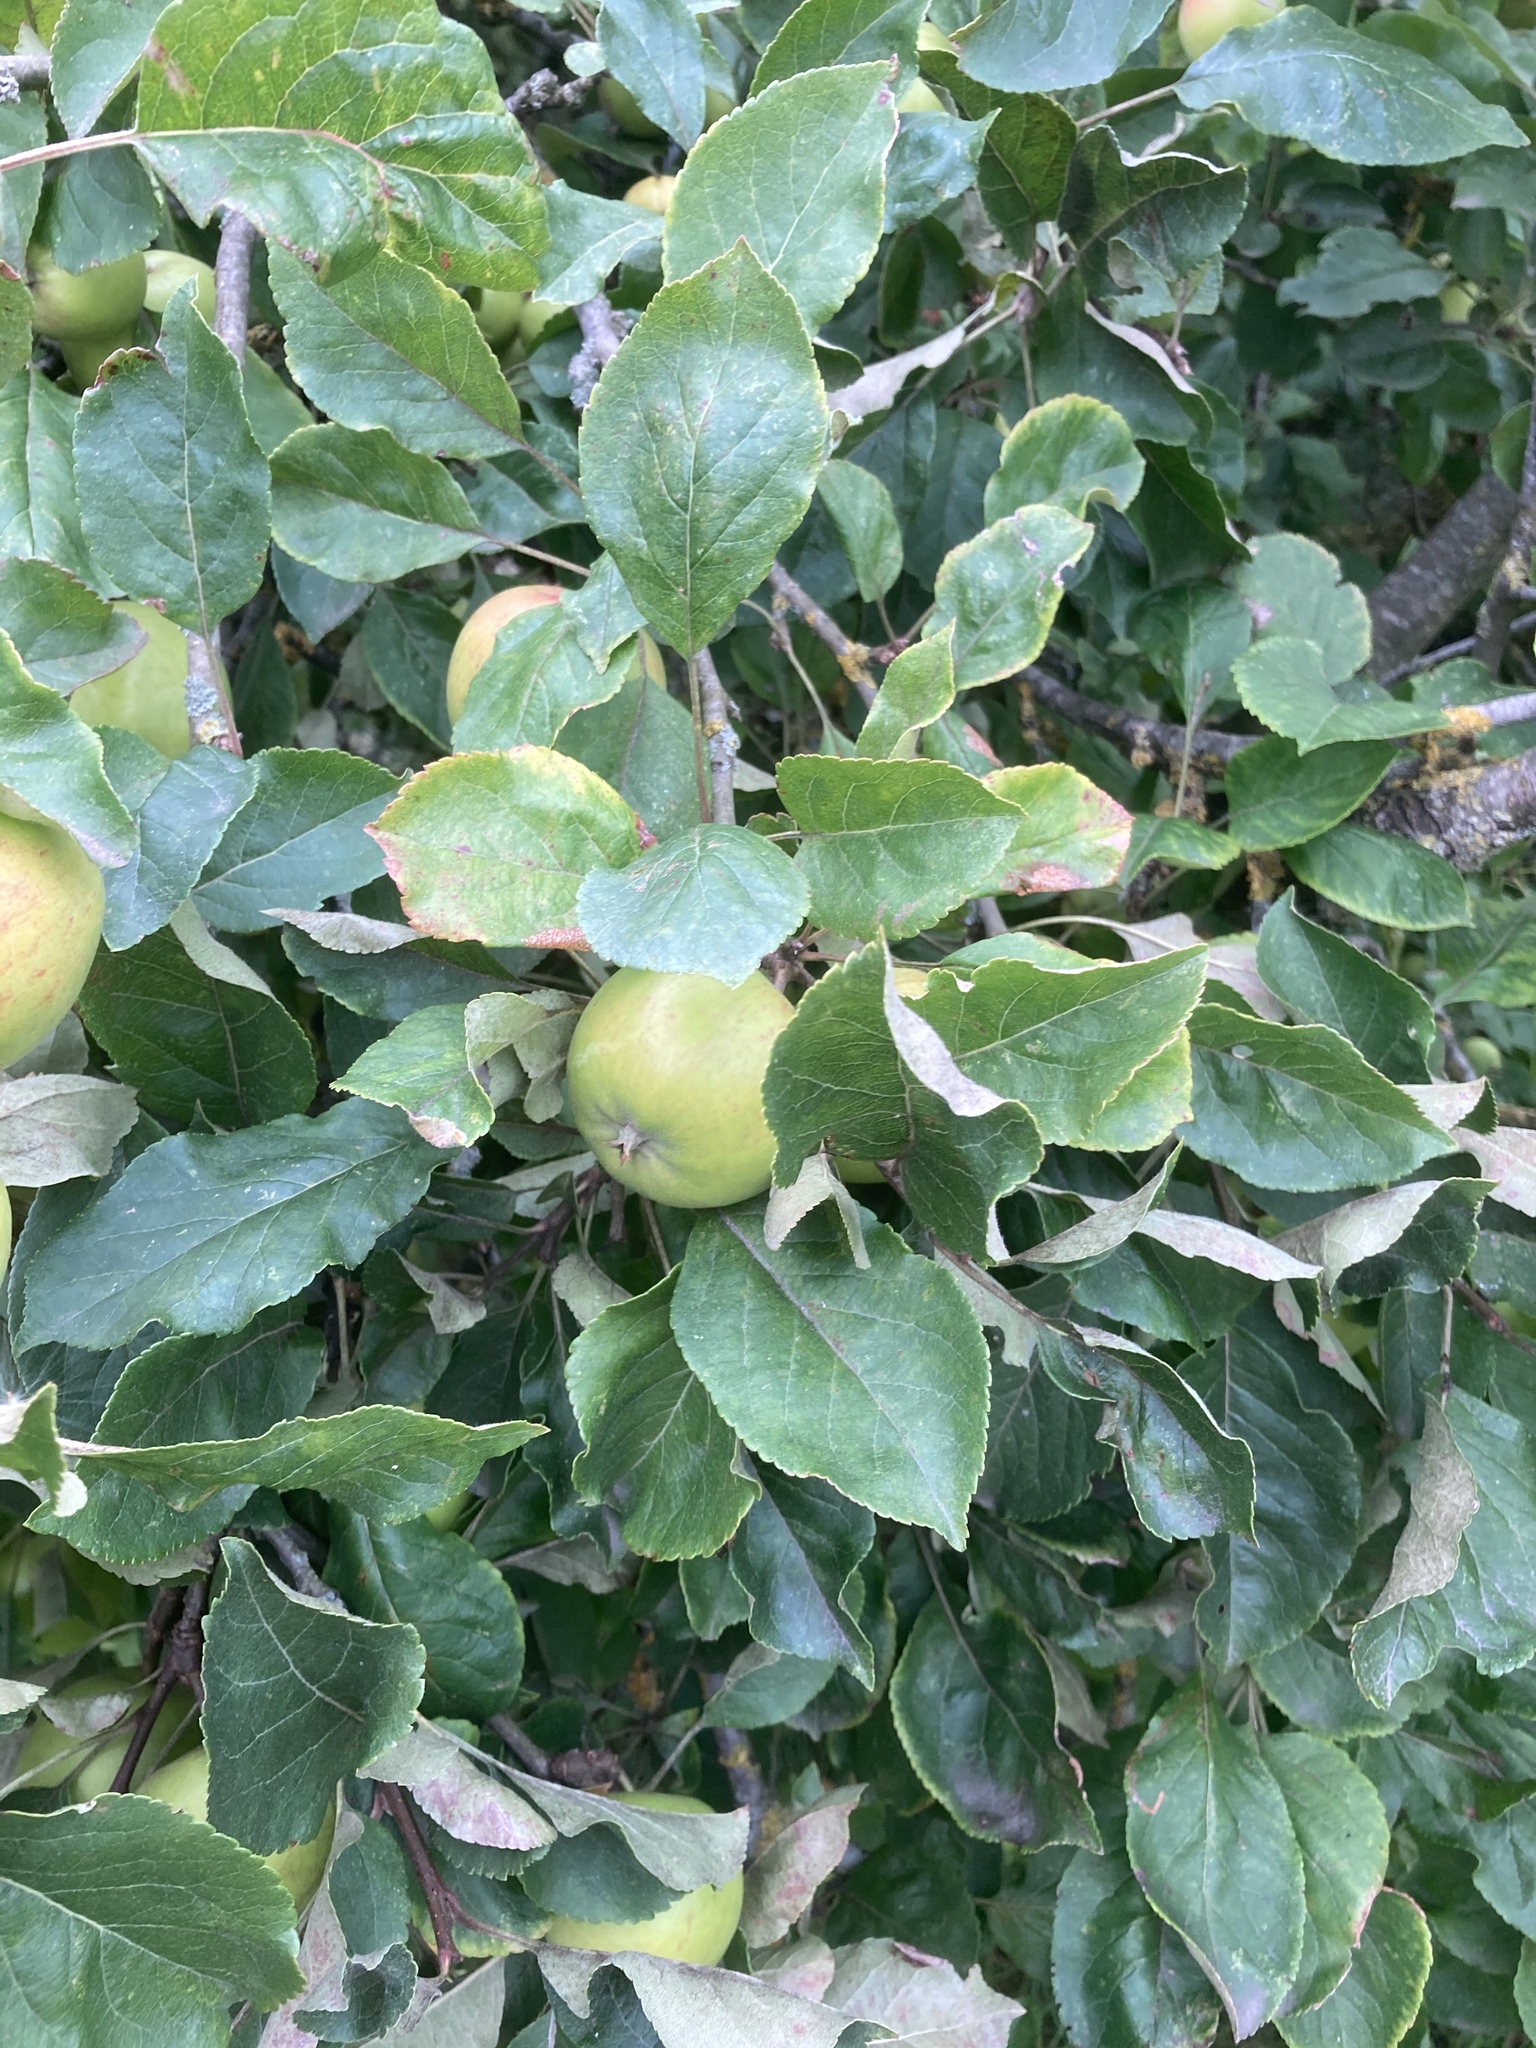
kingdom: Plantae
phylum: Tracheophyta
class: Magnoliopsida
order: Rosales
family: Rosaceae
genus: Malus
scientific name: Malus domestica
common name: Apple
